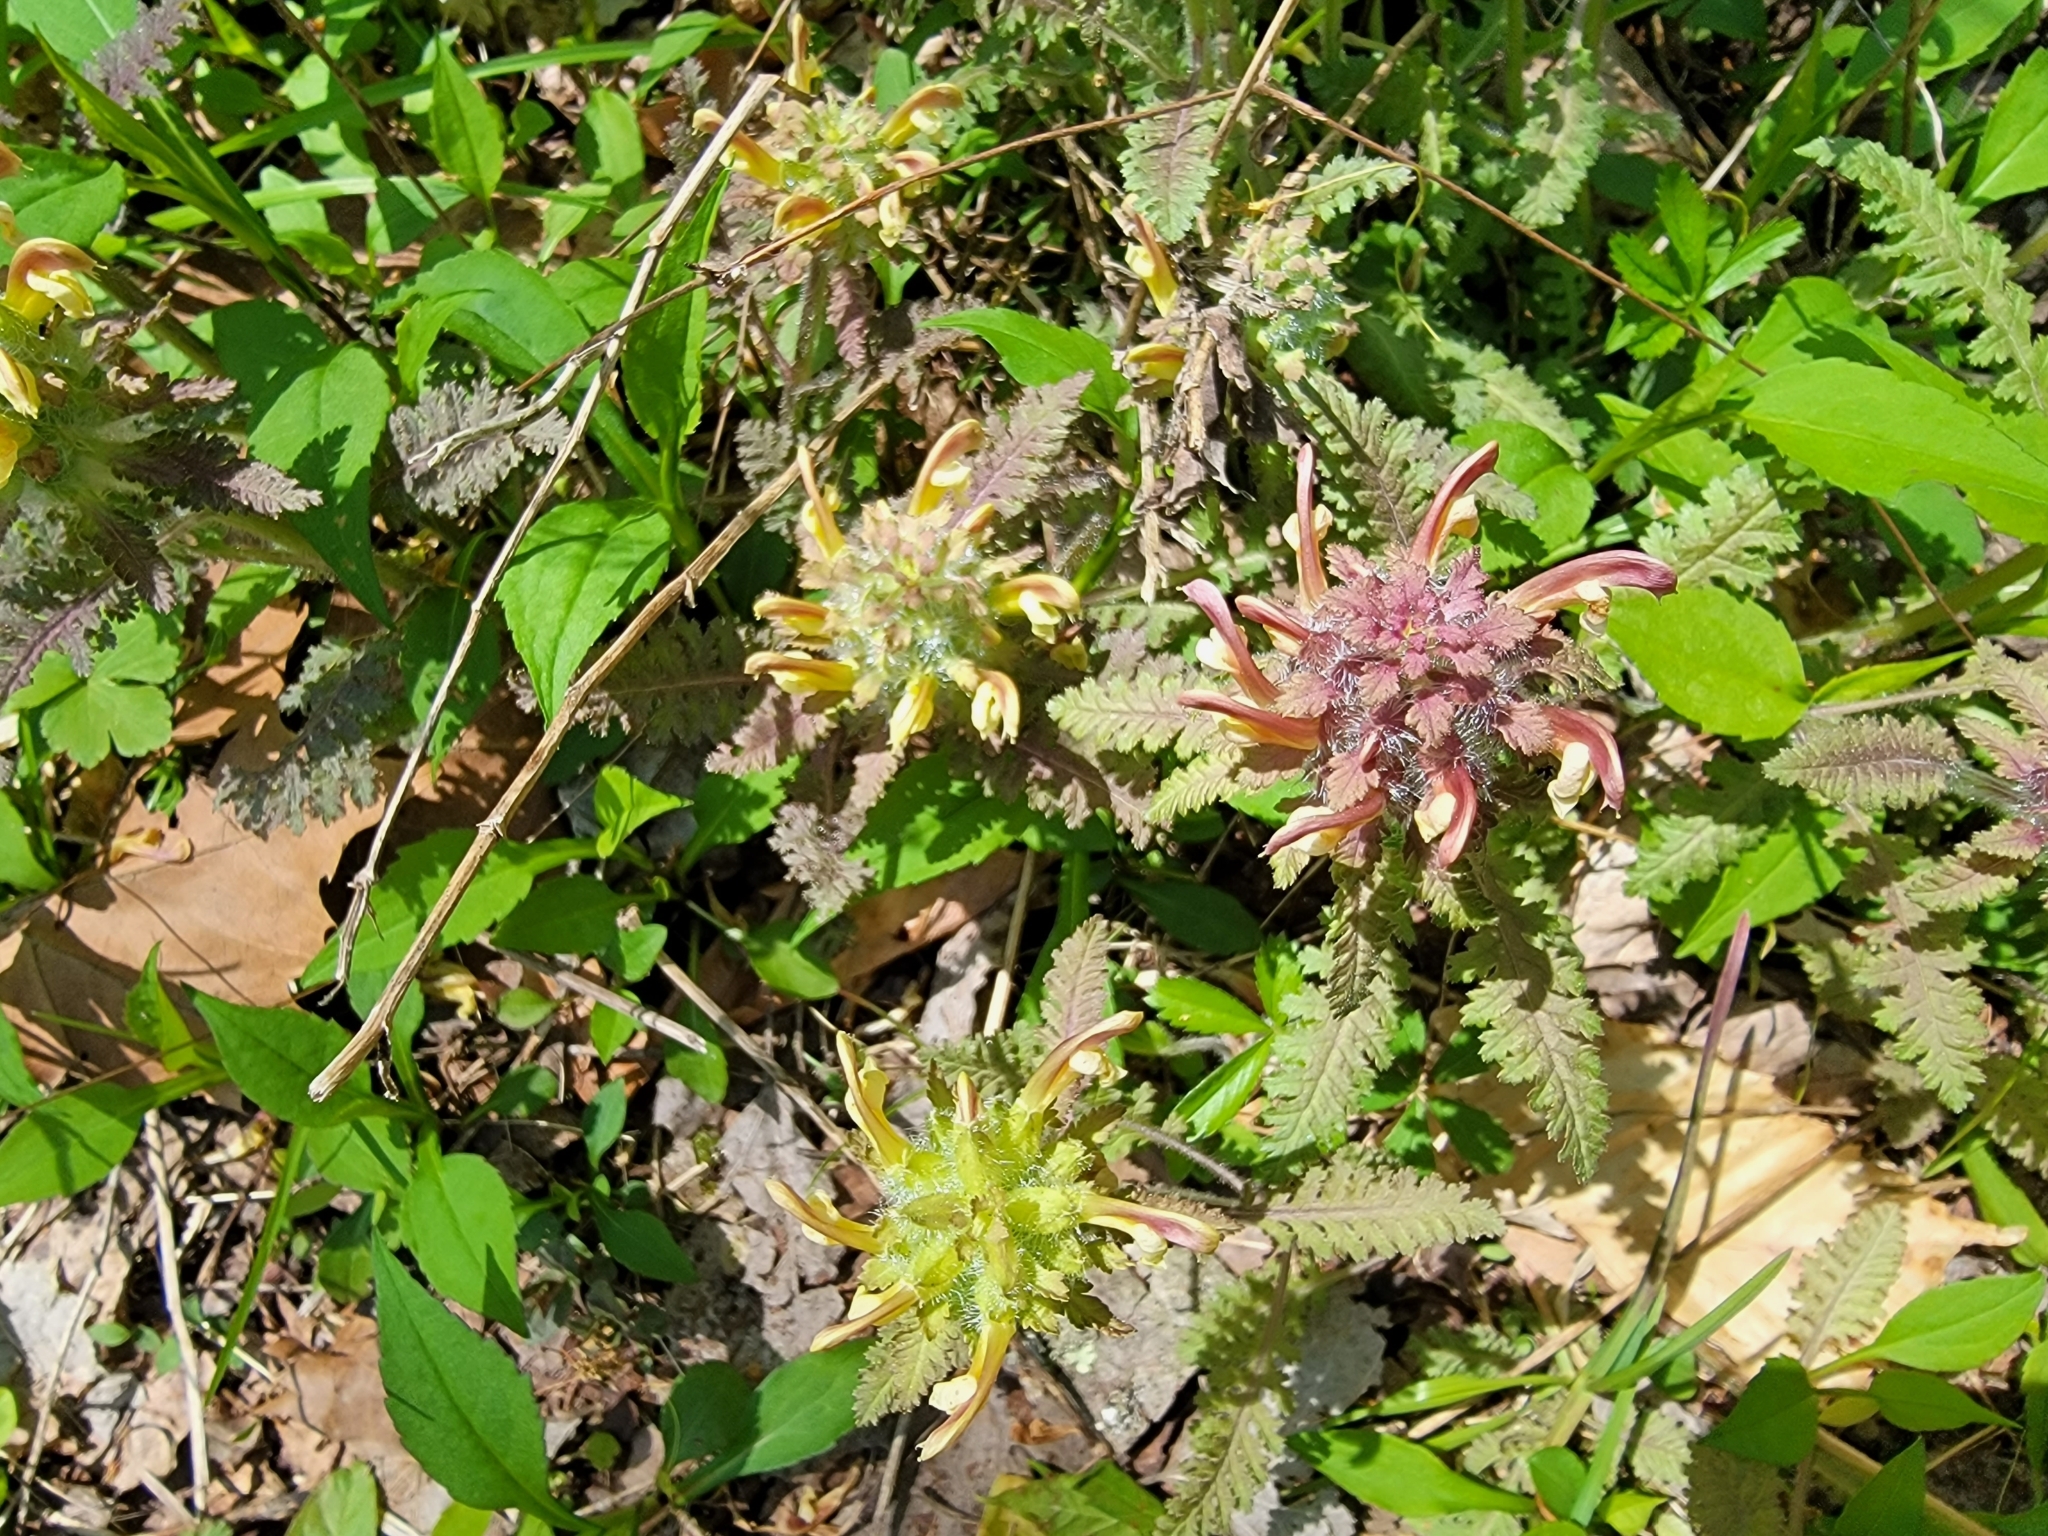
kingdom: Plantae
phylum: Tracheophyta
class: Magnoliopsida
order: Lamiales
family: Orobanchaceae
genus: Pedicularis
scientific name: Pedicularis canadensis
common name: Early lousewort
